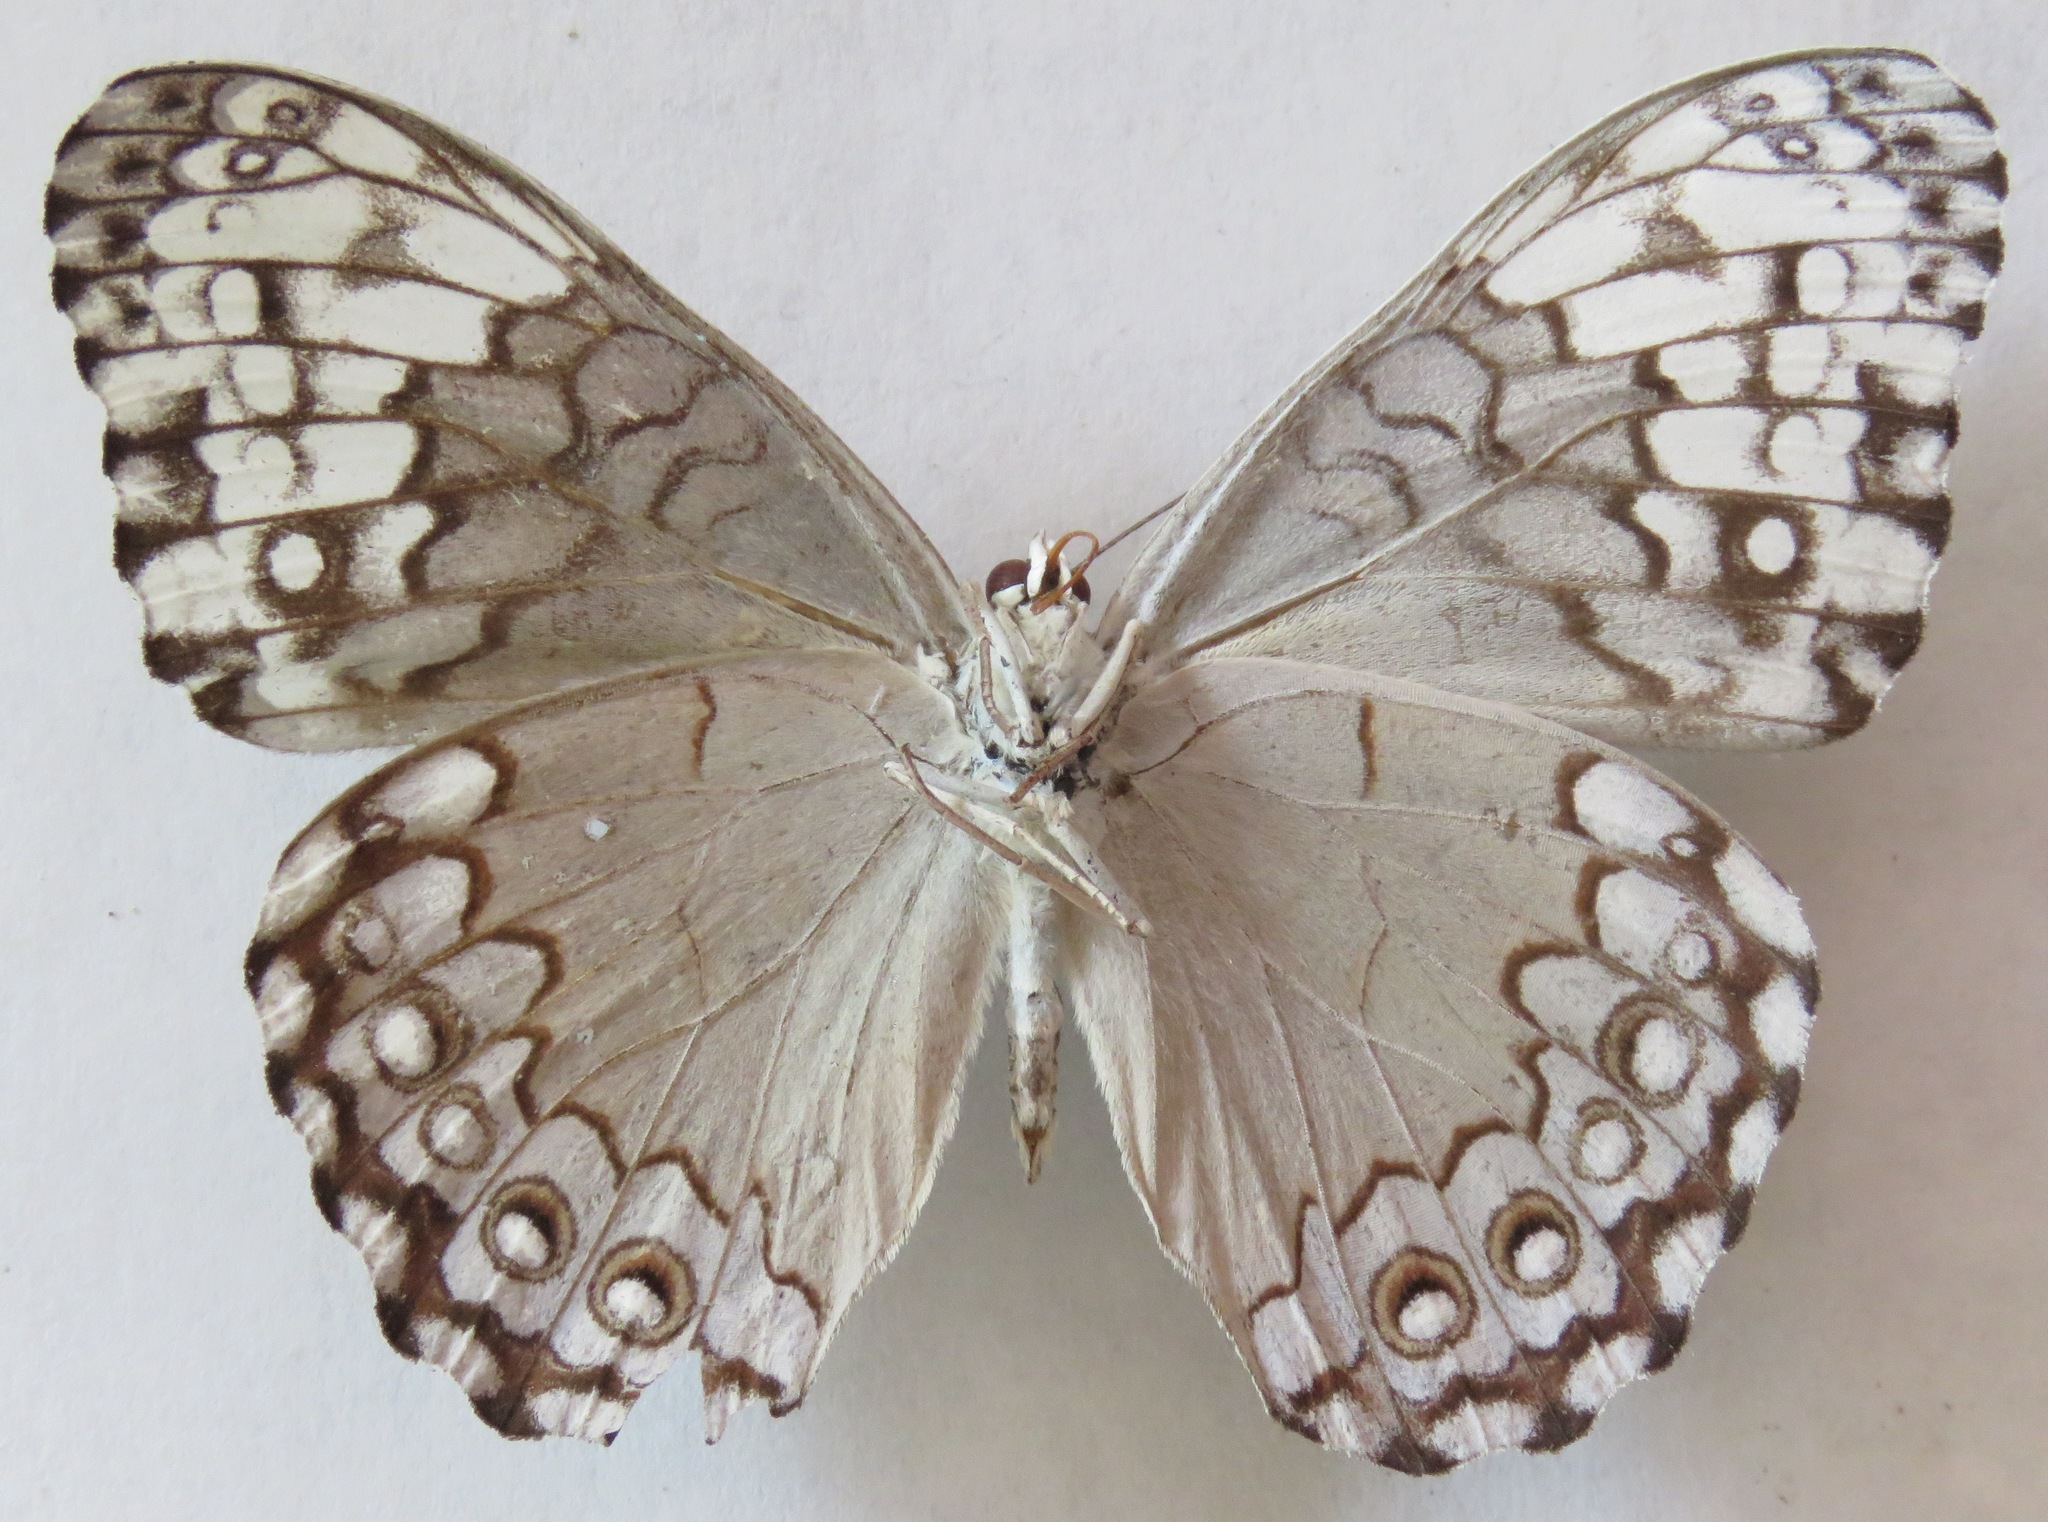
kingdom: Animalia
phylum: Arthropoda
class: Insecta
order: Lepidoptera
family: Nymphalidae
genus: Hamadryas
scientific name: Hamadryas glauconome
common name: Glaucous cracker
